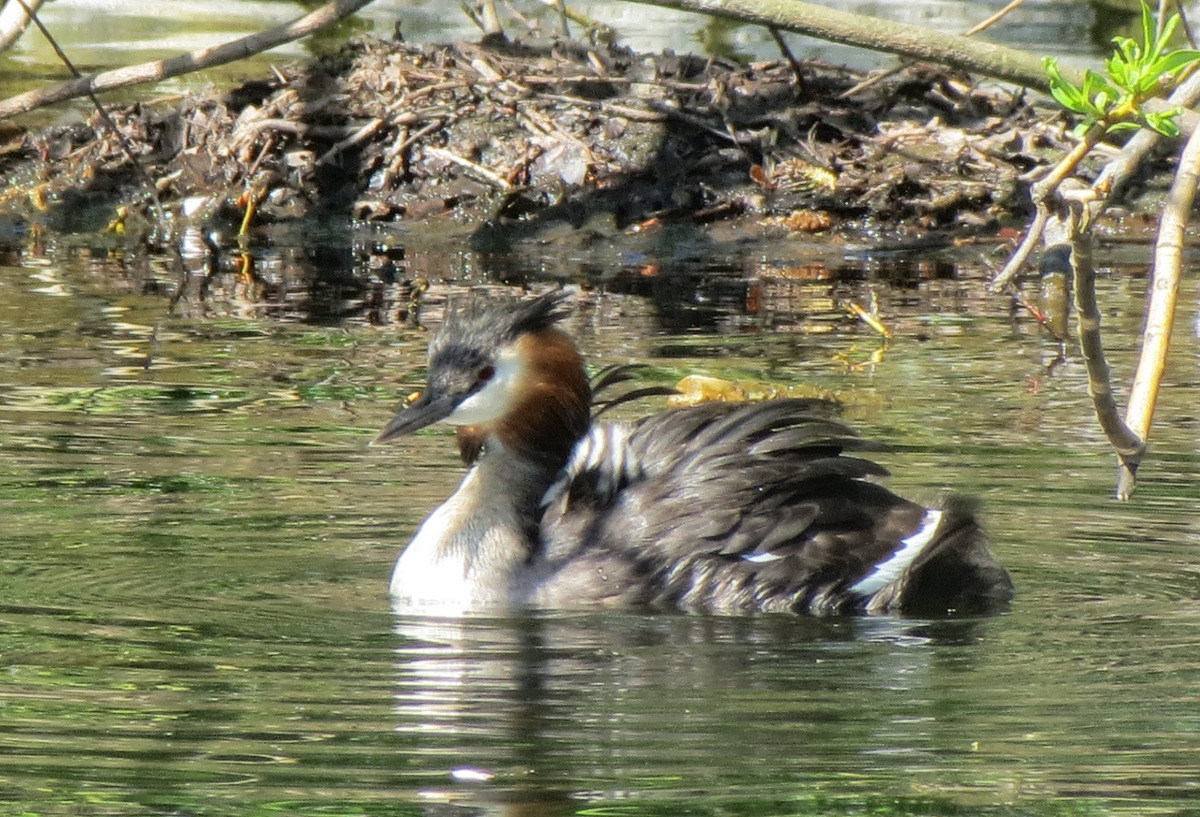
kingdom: Animalia
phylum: Chordata
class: Aves
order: Podicipediformes
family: Podicipedidae
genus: Podiceps
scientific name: Podiceps cristatus
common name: Great crested grebe
